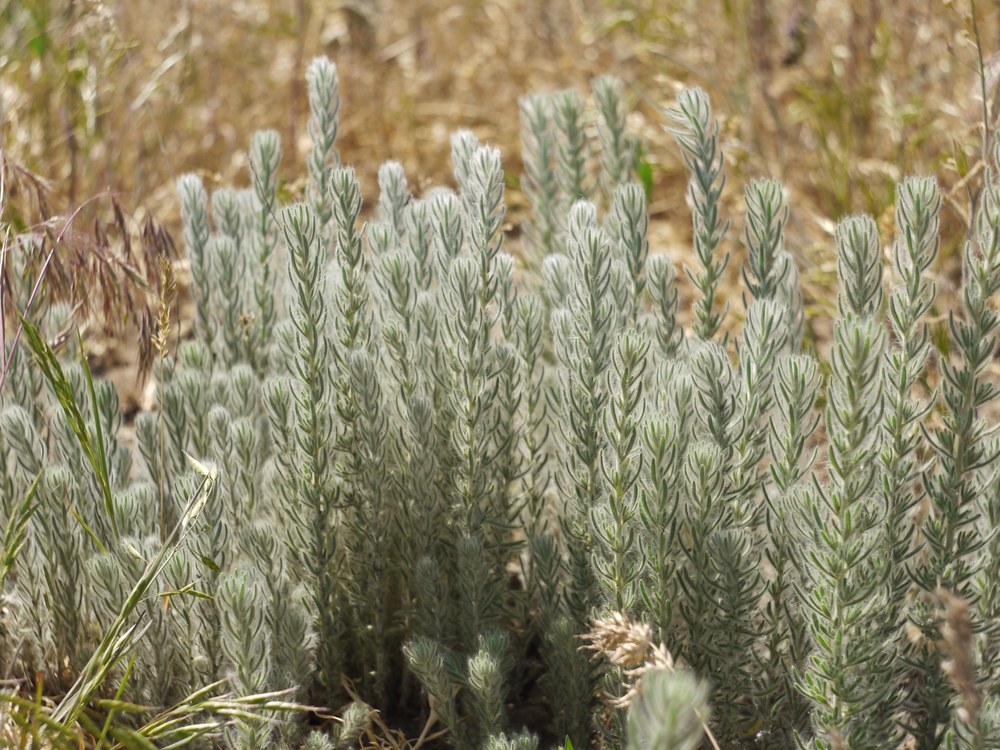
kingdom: Plantae
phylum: Tracheophyta
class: Magnoliopsida
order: Caryophyllales
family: Amaranthaceae
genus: Sedobassia
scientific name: Sedobassia sedoides
